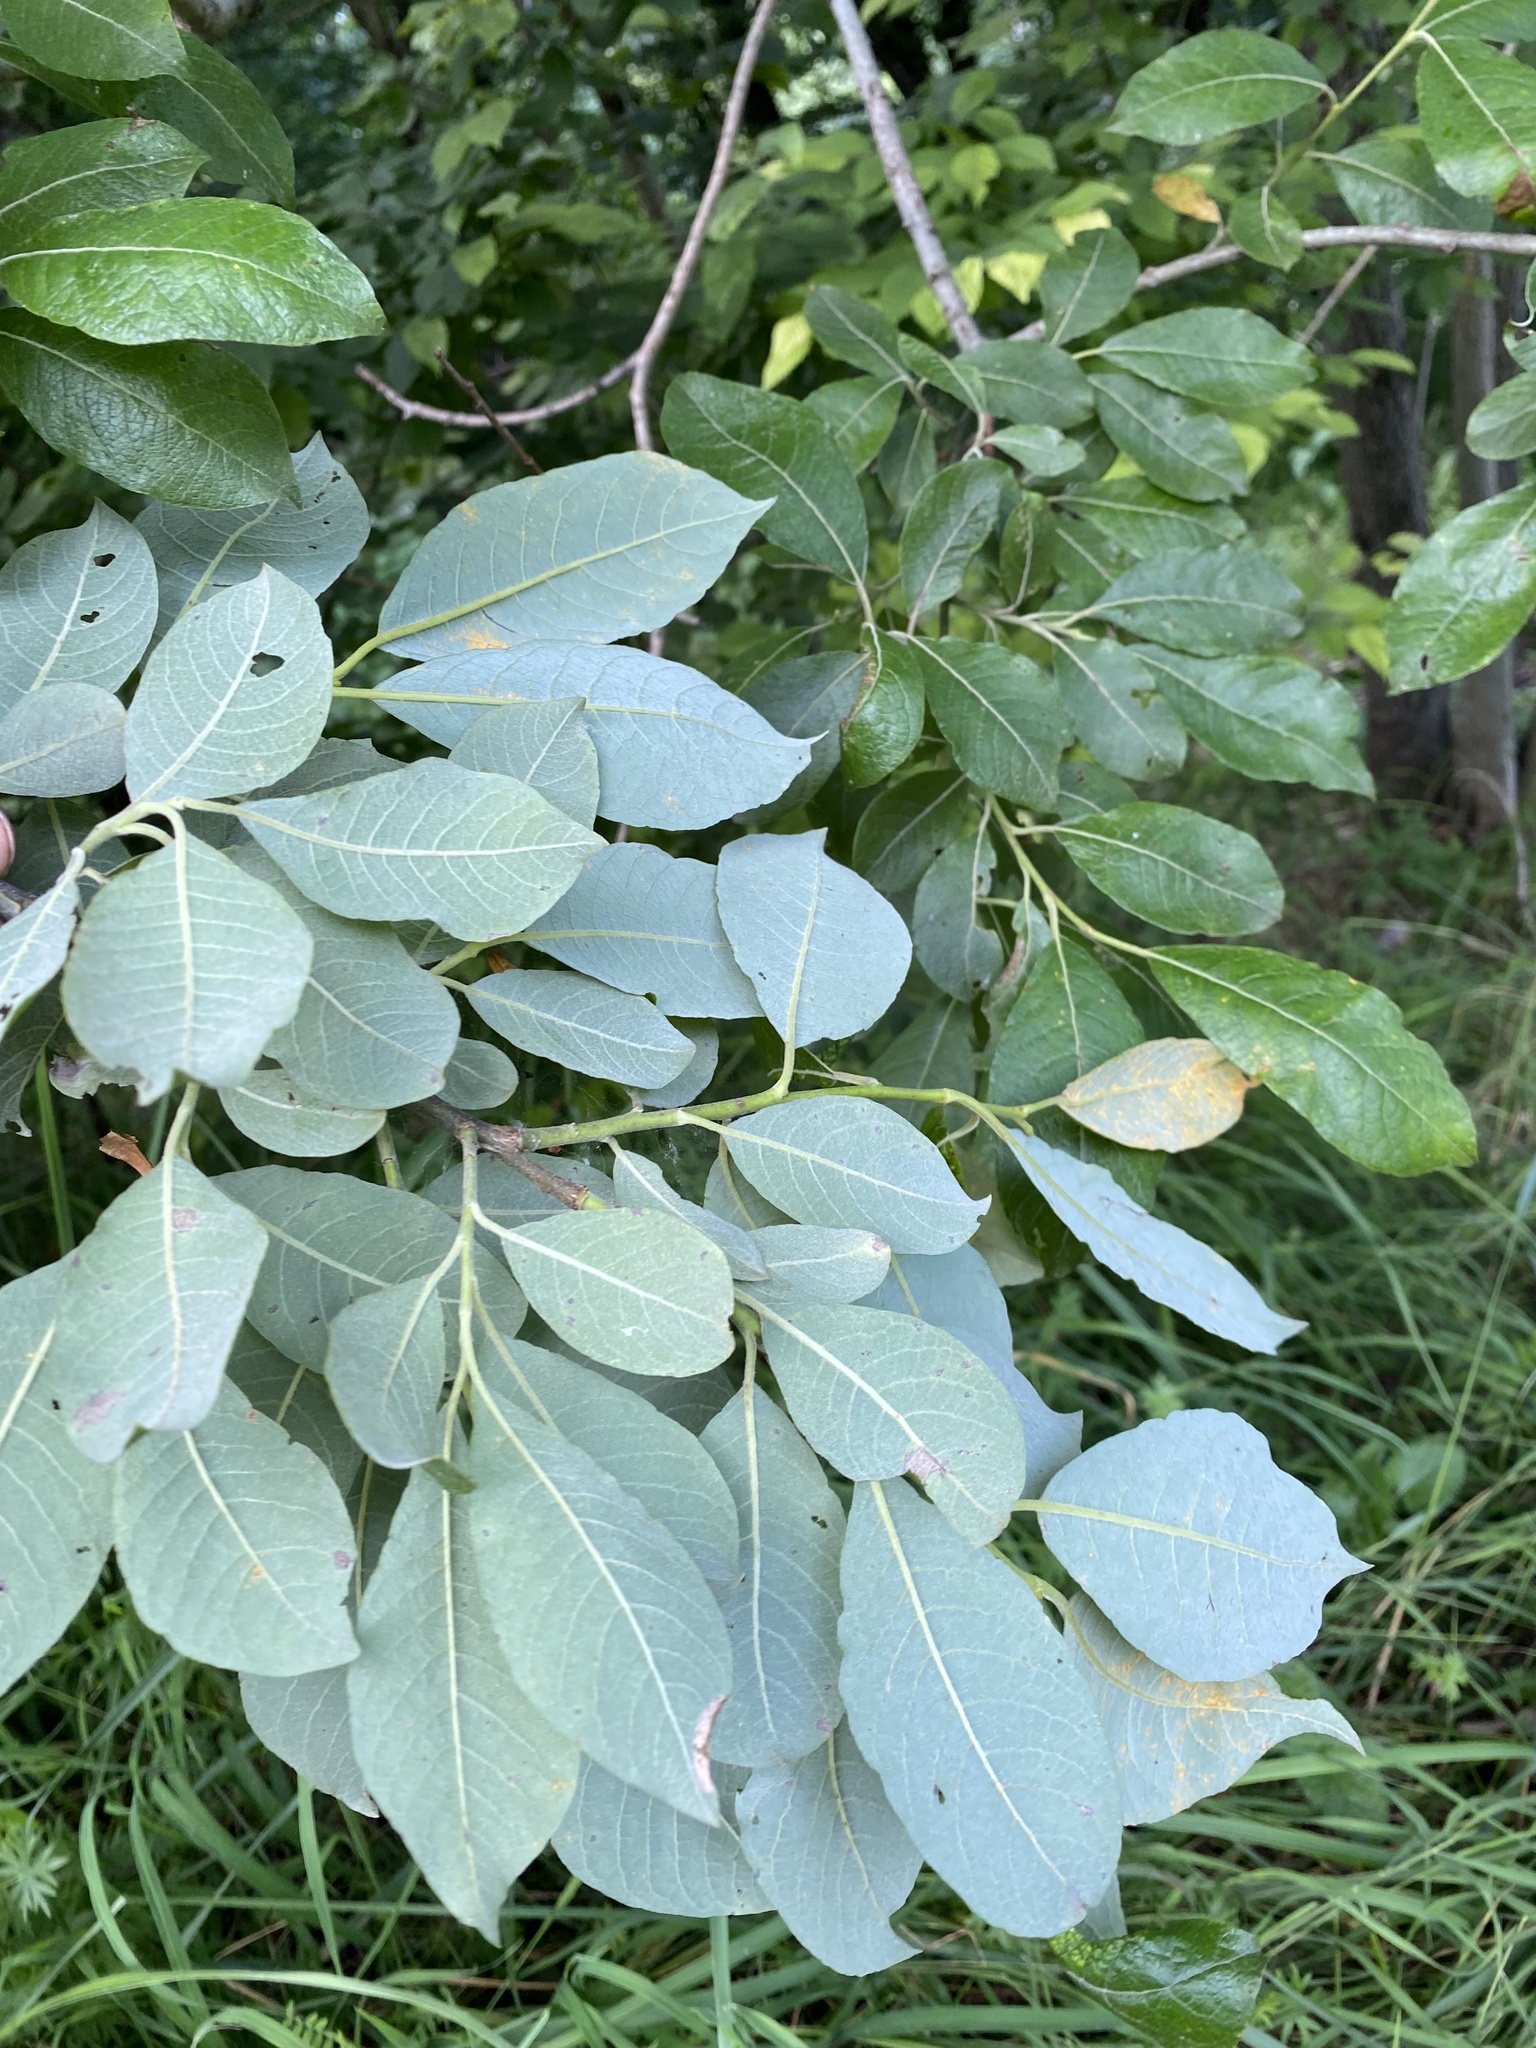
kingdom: Plantae
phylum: Tracheophyta
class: Magnoliopsida
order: Malpighiales
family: Salicaceae
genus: Salix
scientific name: Salix caprea
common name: Goat willow
